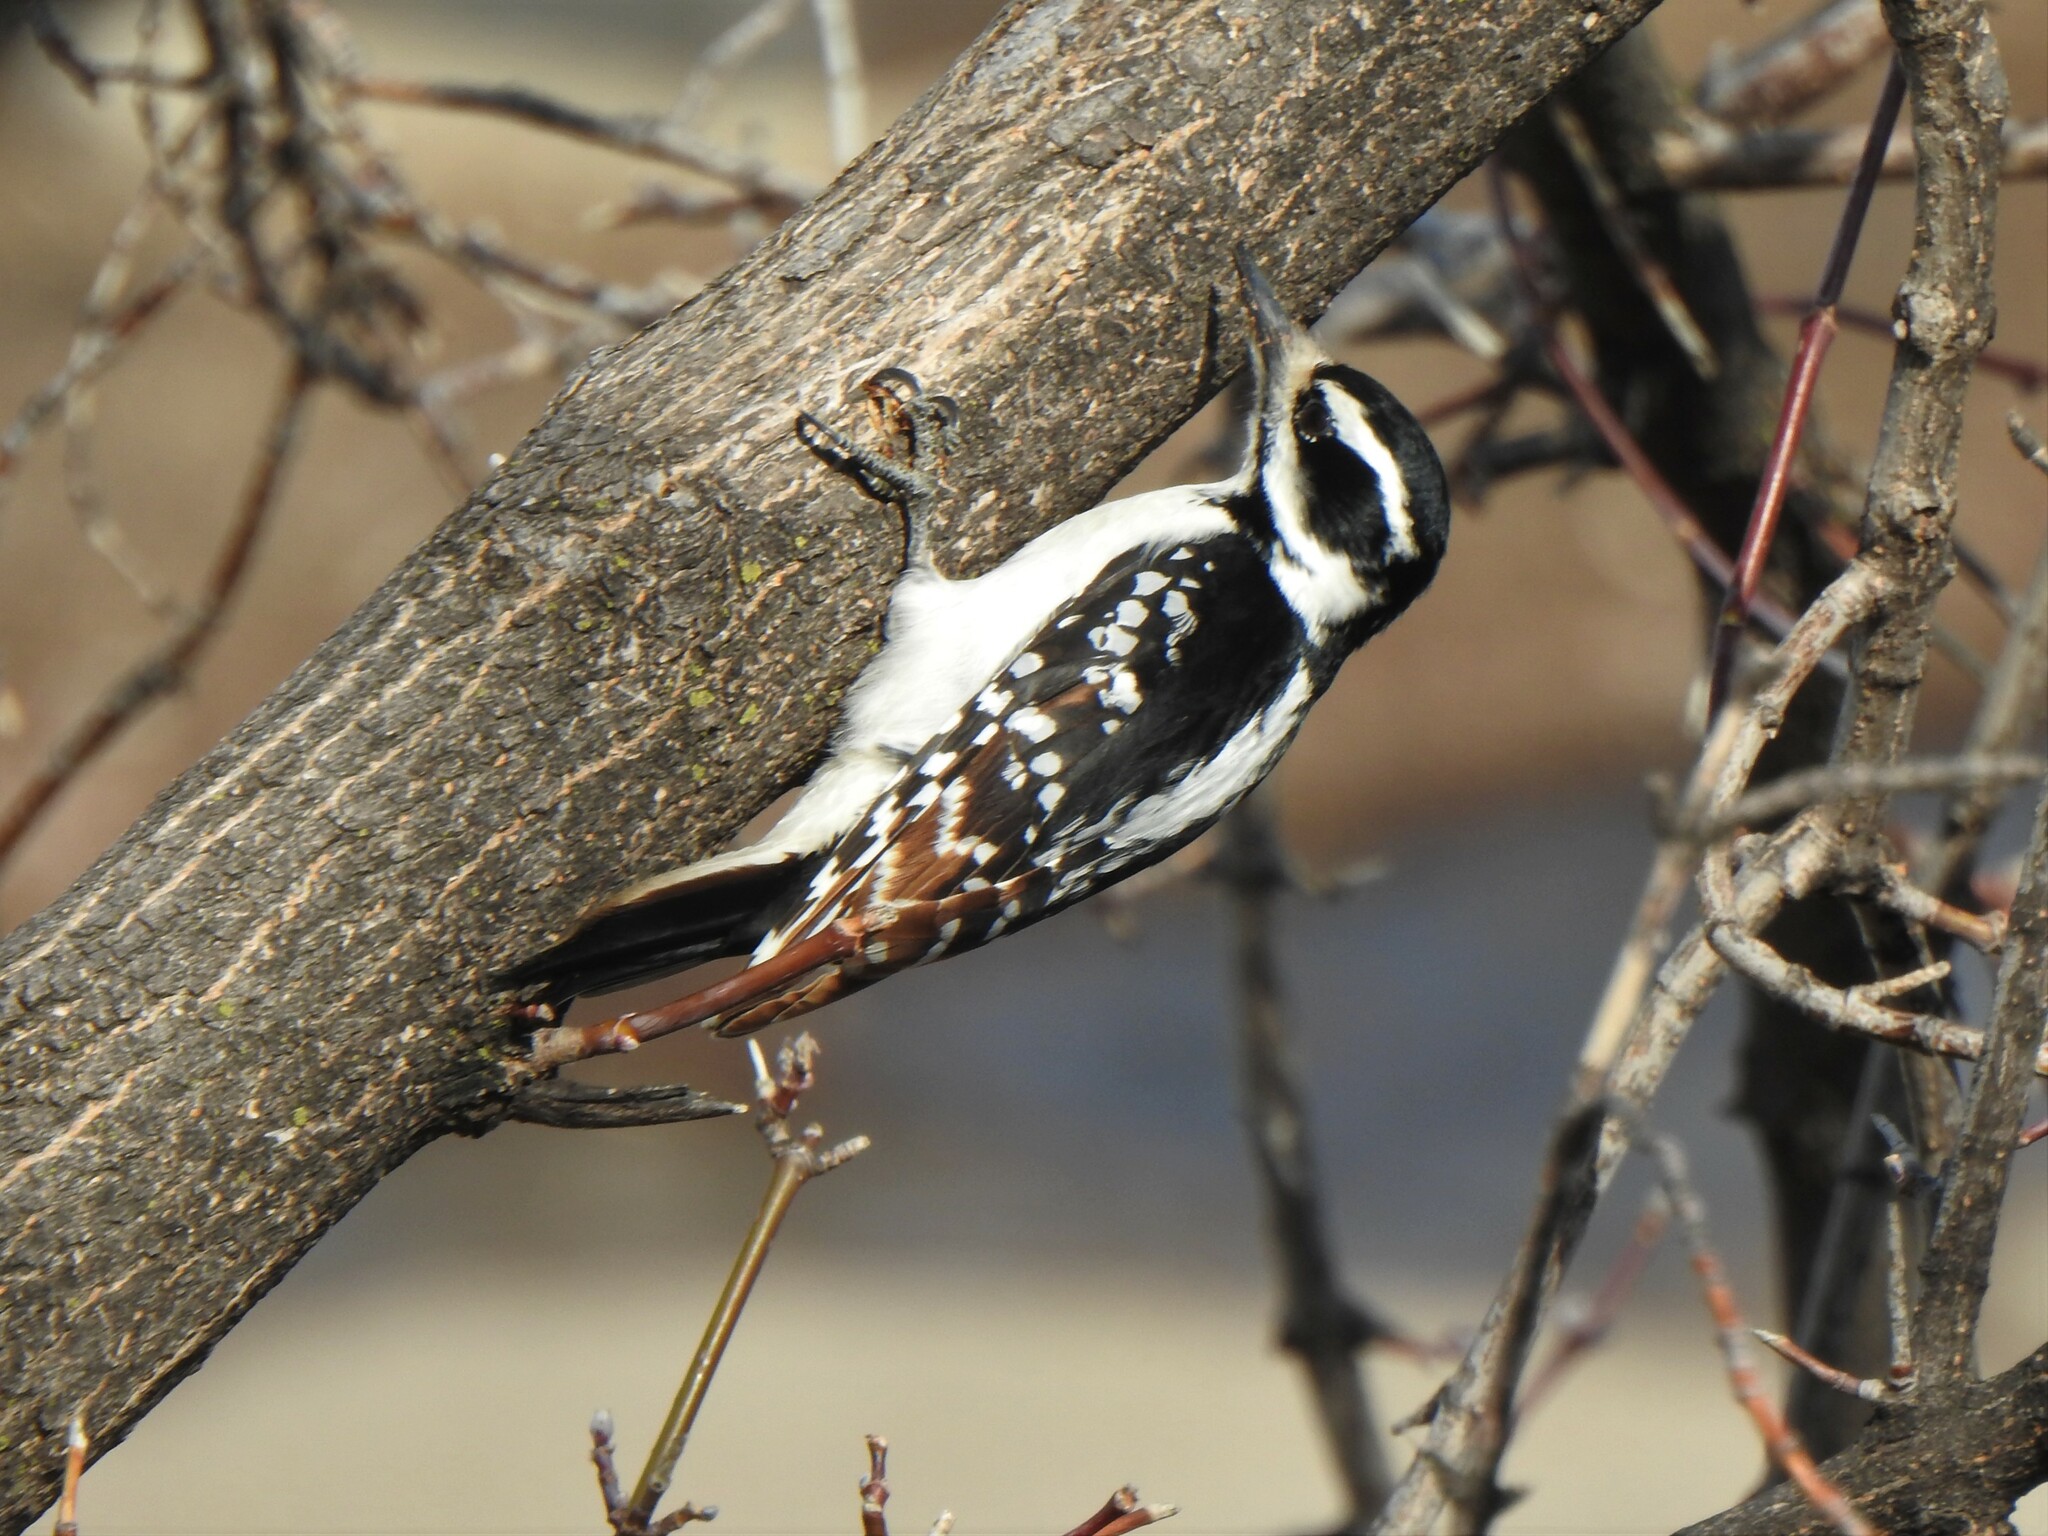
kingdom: Animalia
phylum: Chordata
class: Aves
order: Piciformes
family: Picidae
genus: Leuconotopicus
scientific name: Leuconotopicus villosus
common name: Hairy woodpecker
